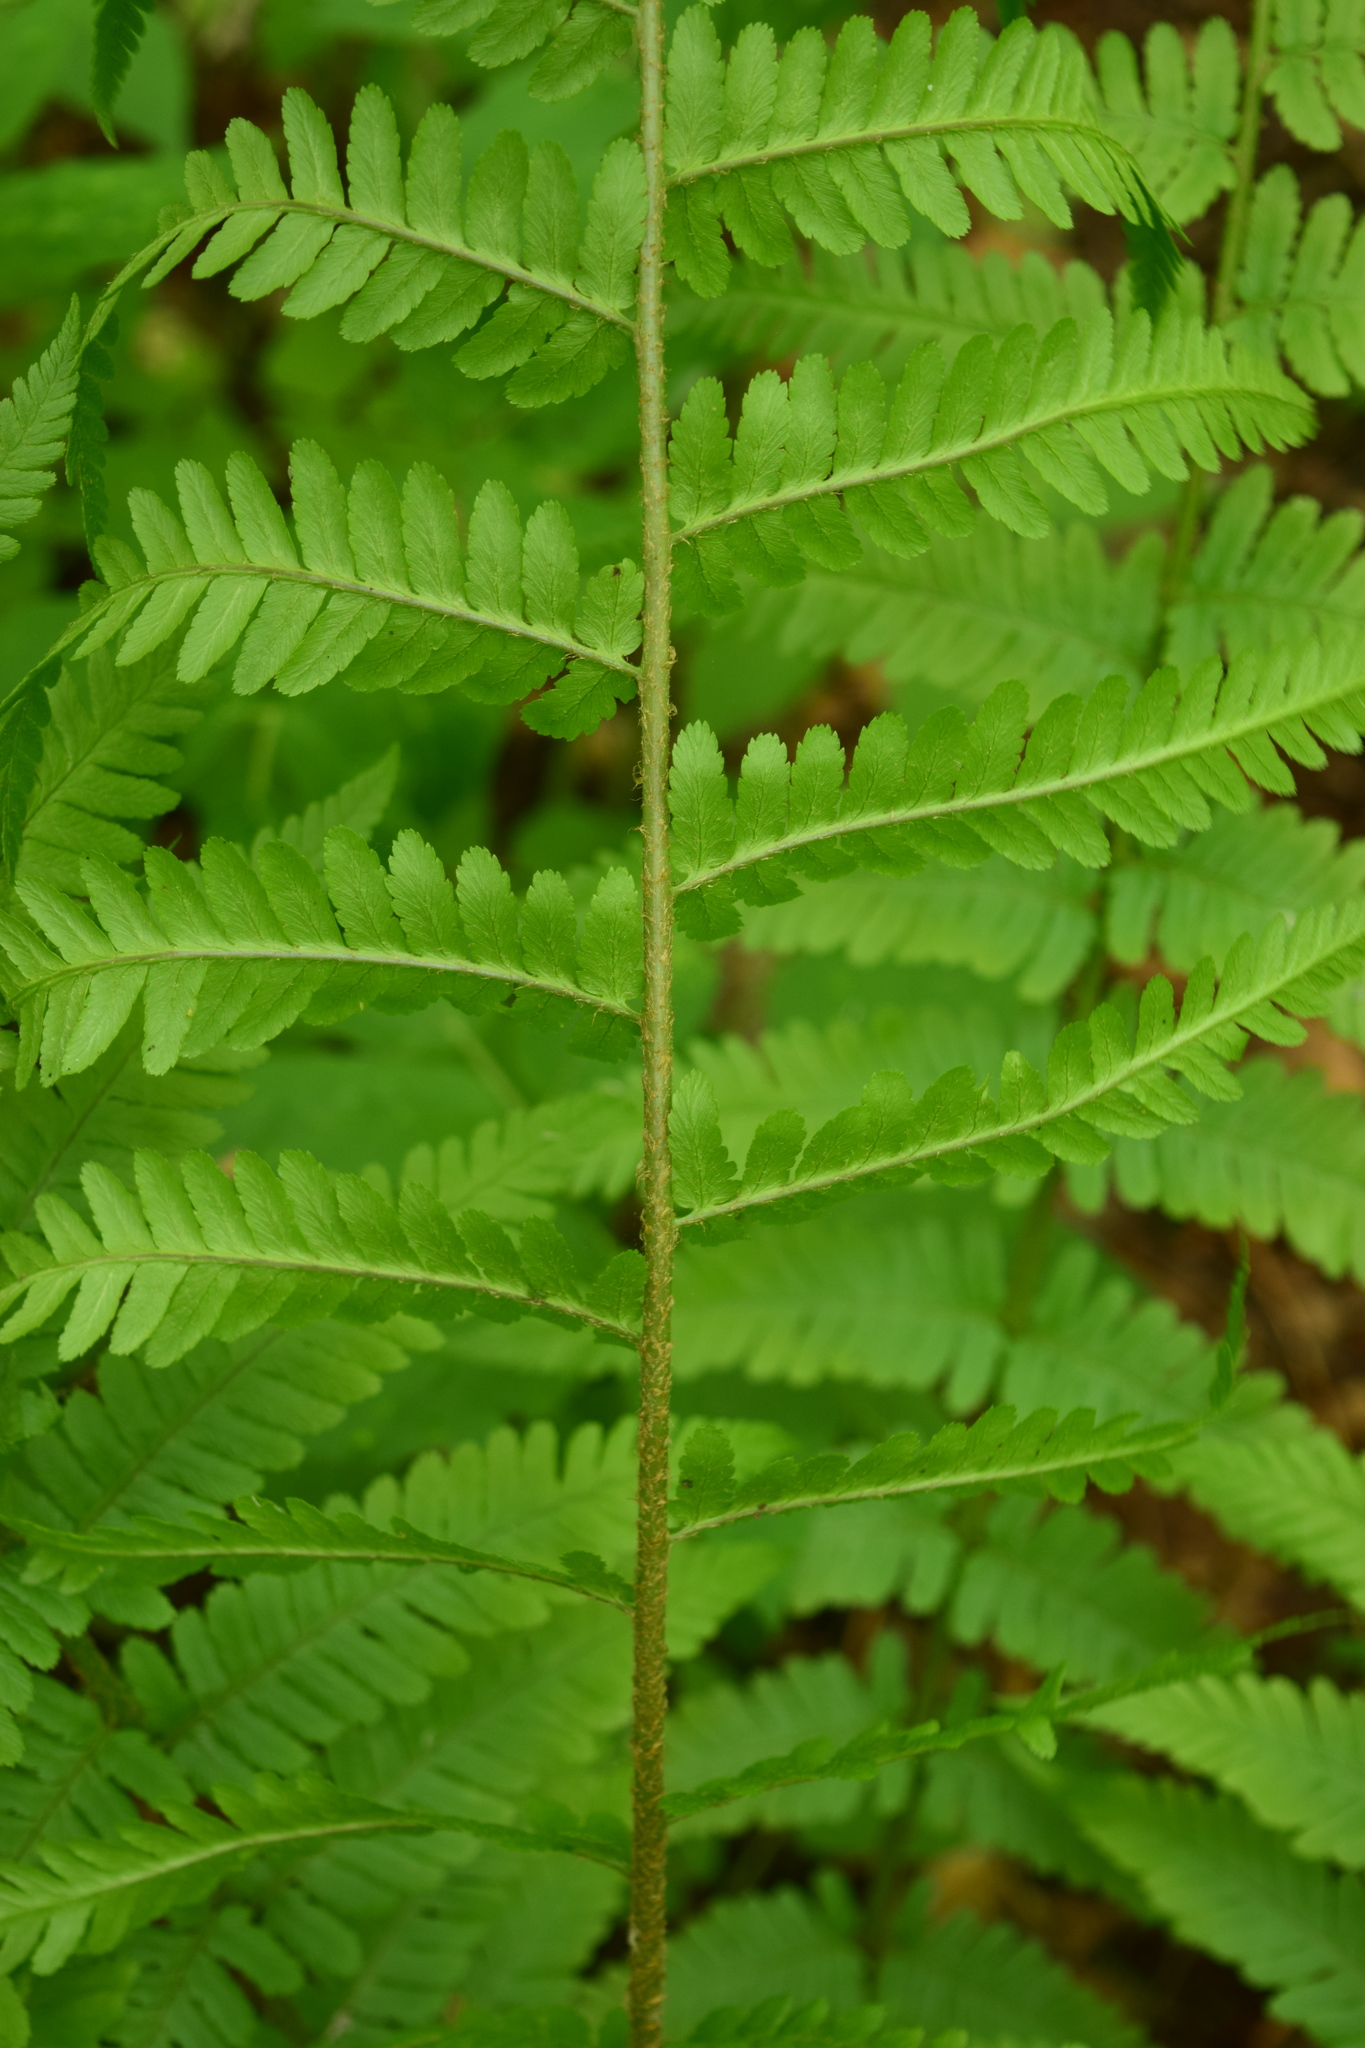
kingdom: Plantae
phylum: Tracheophyta
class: Polypodiopsida
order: Polypodiales
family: Dryopteridaceae
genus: Dryopteris
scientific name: Dryopteris filix-mas
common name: Male fern
